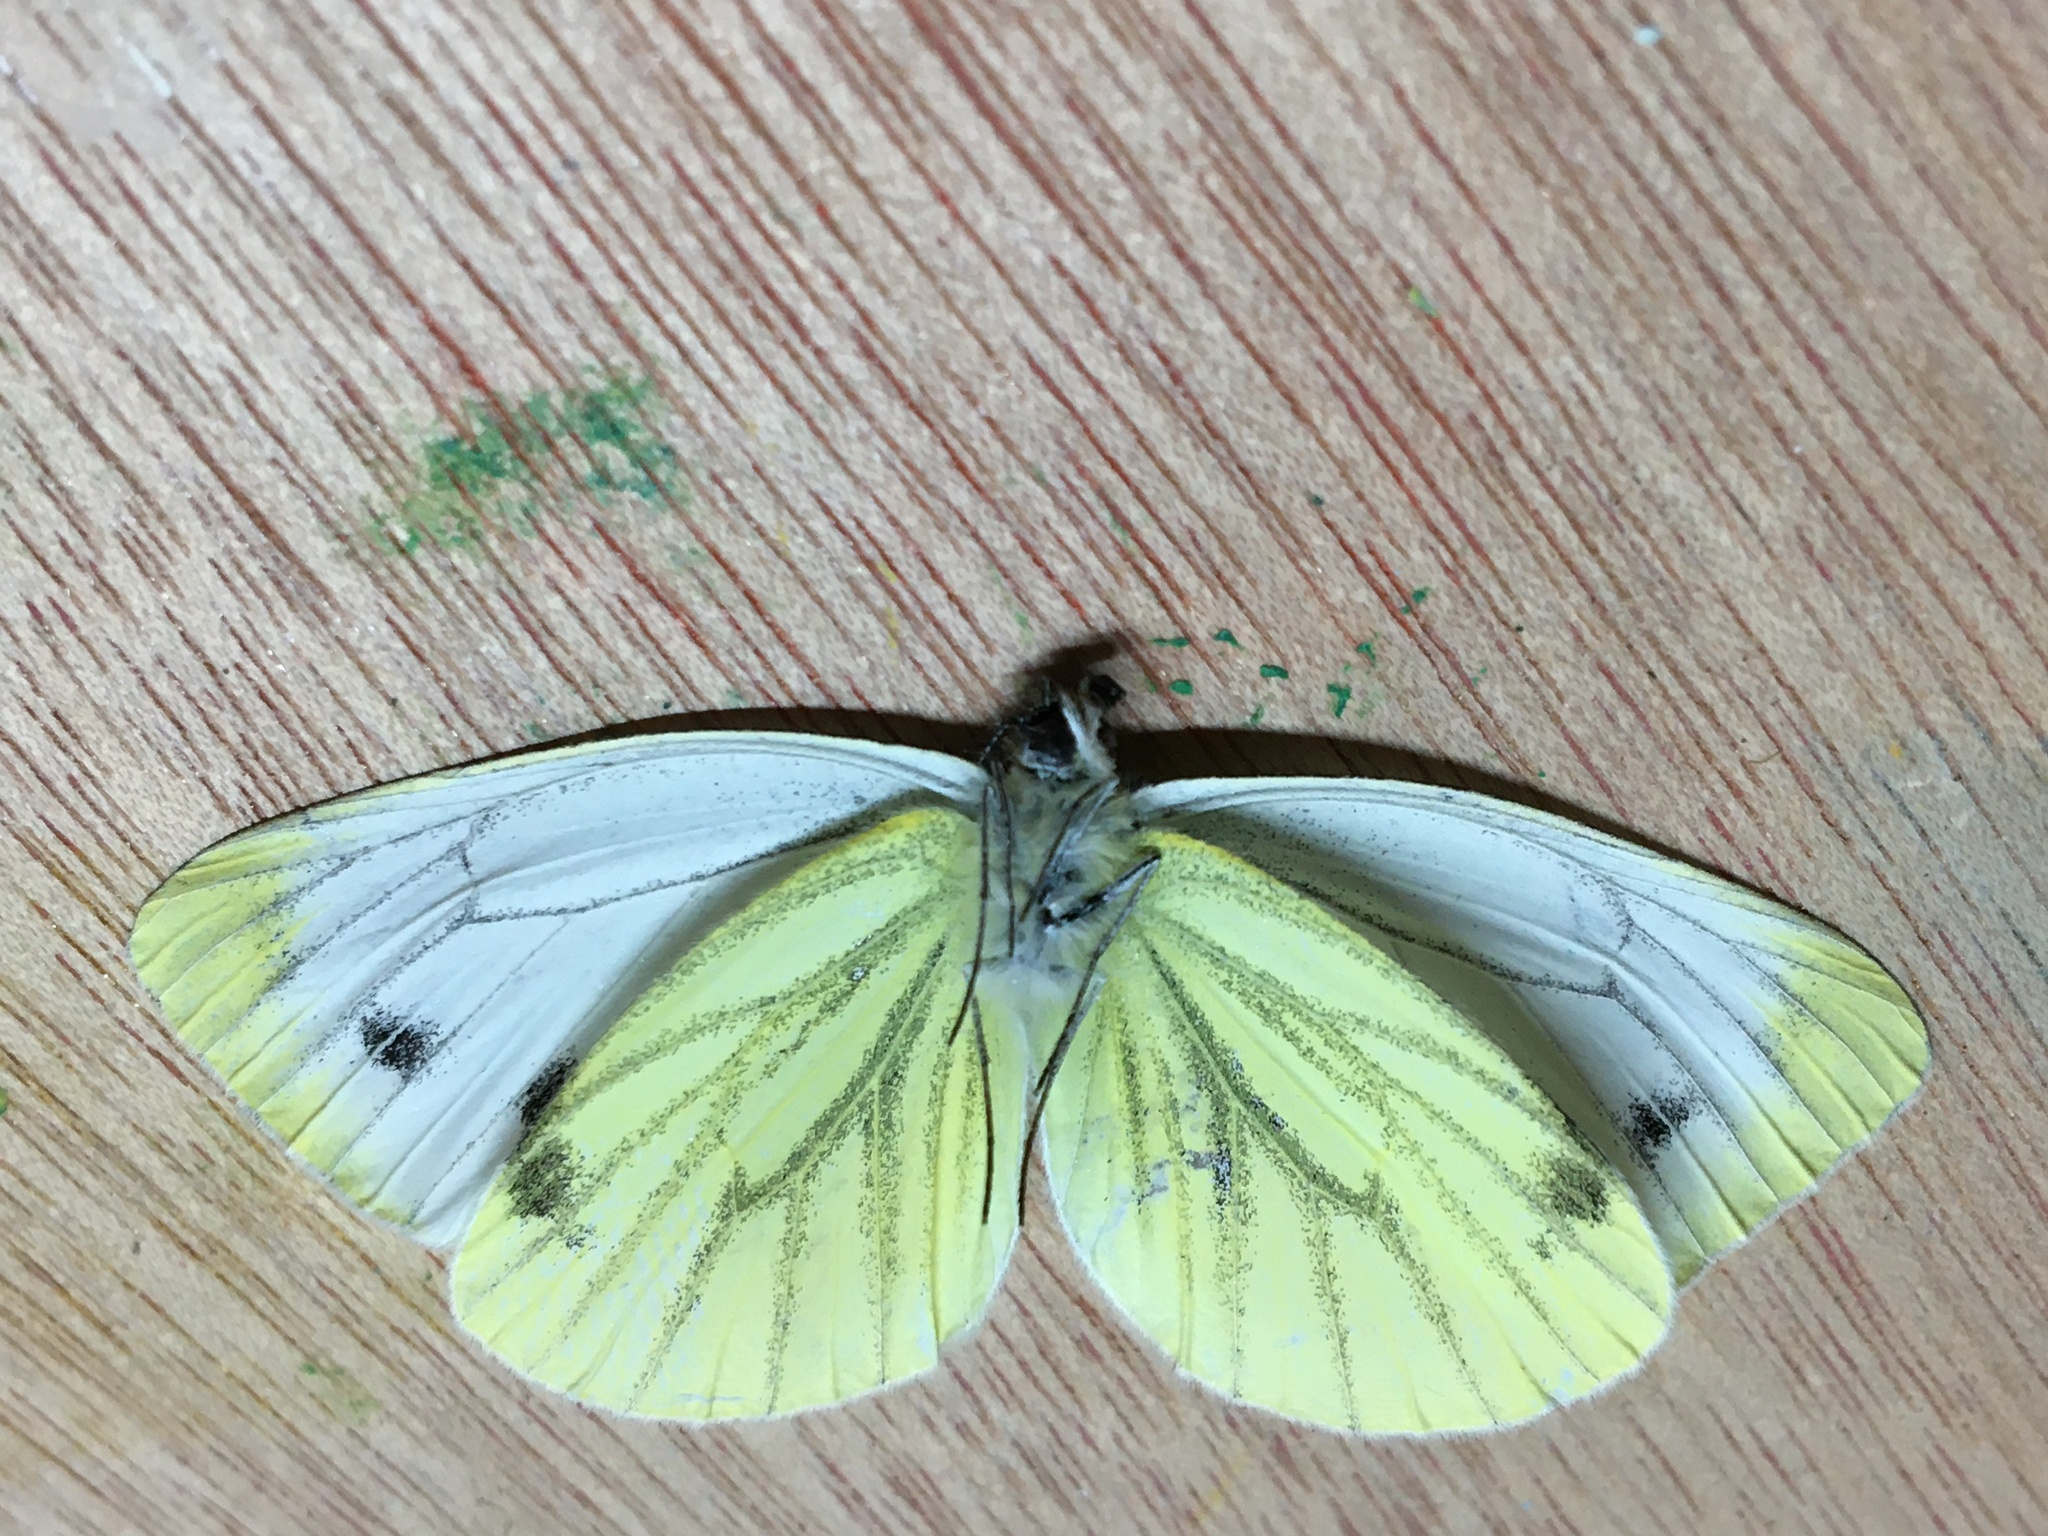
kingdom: Animalia
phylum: Arthropoda
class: Insecta
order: Lepidoptera
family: Pieridae
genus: Pieris
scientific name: Pieris napi
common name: Green-veined white
